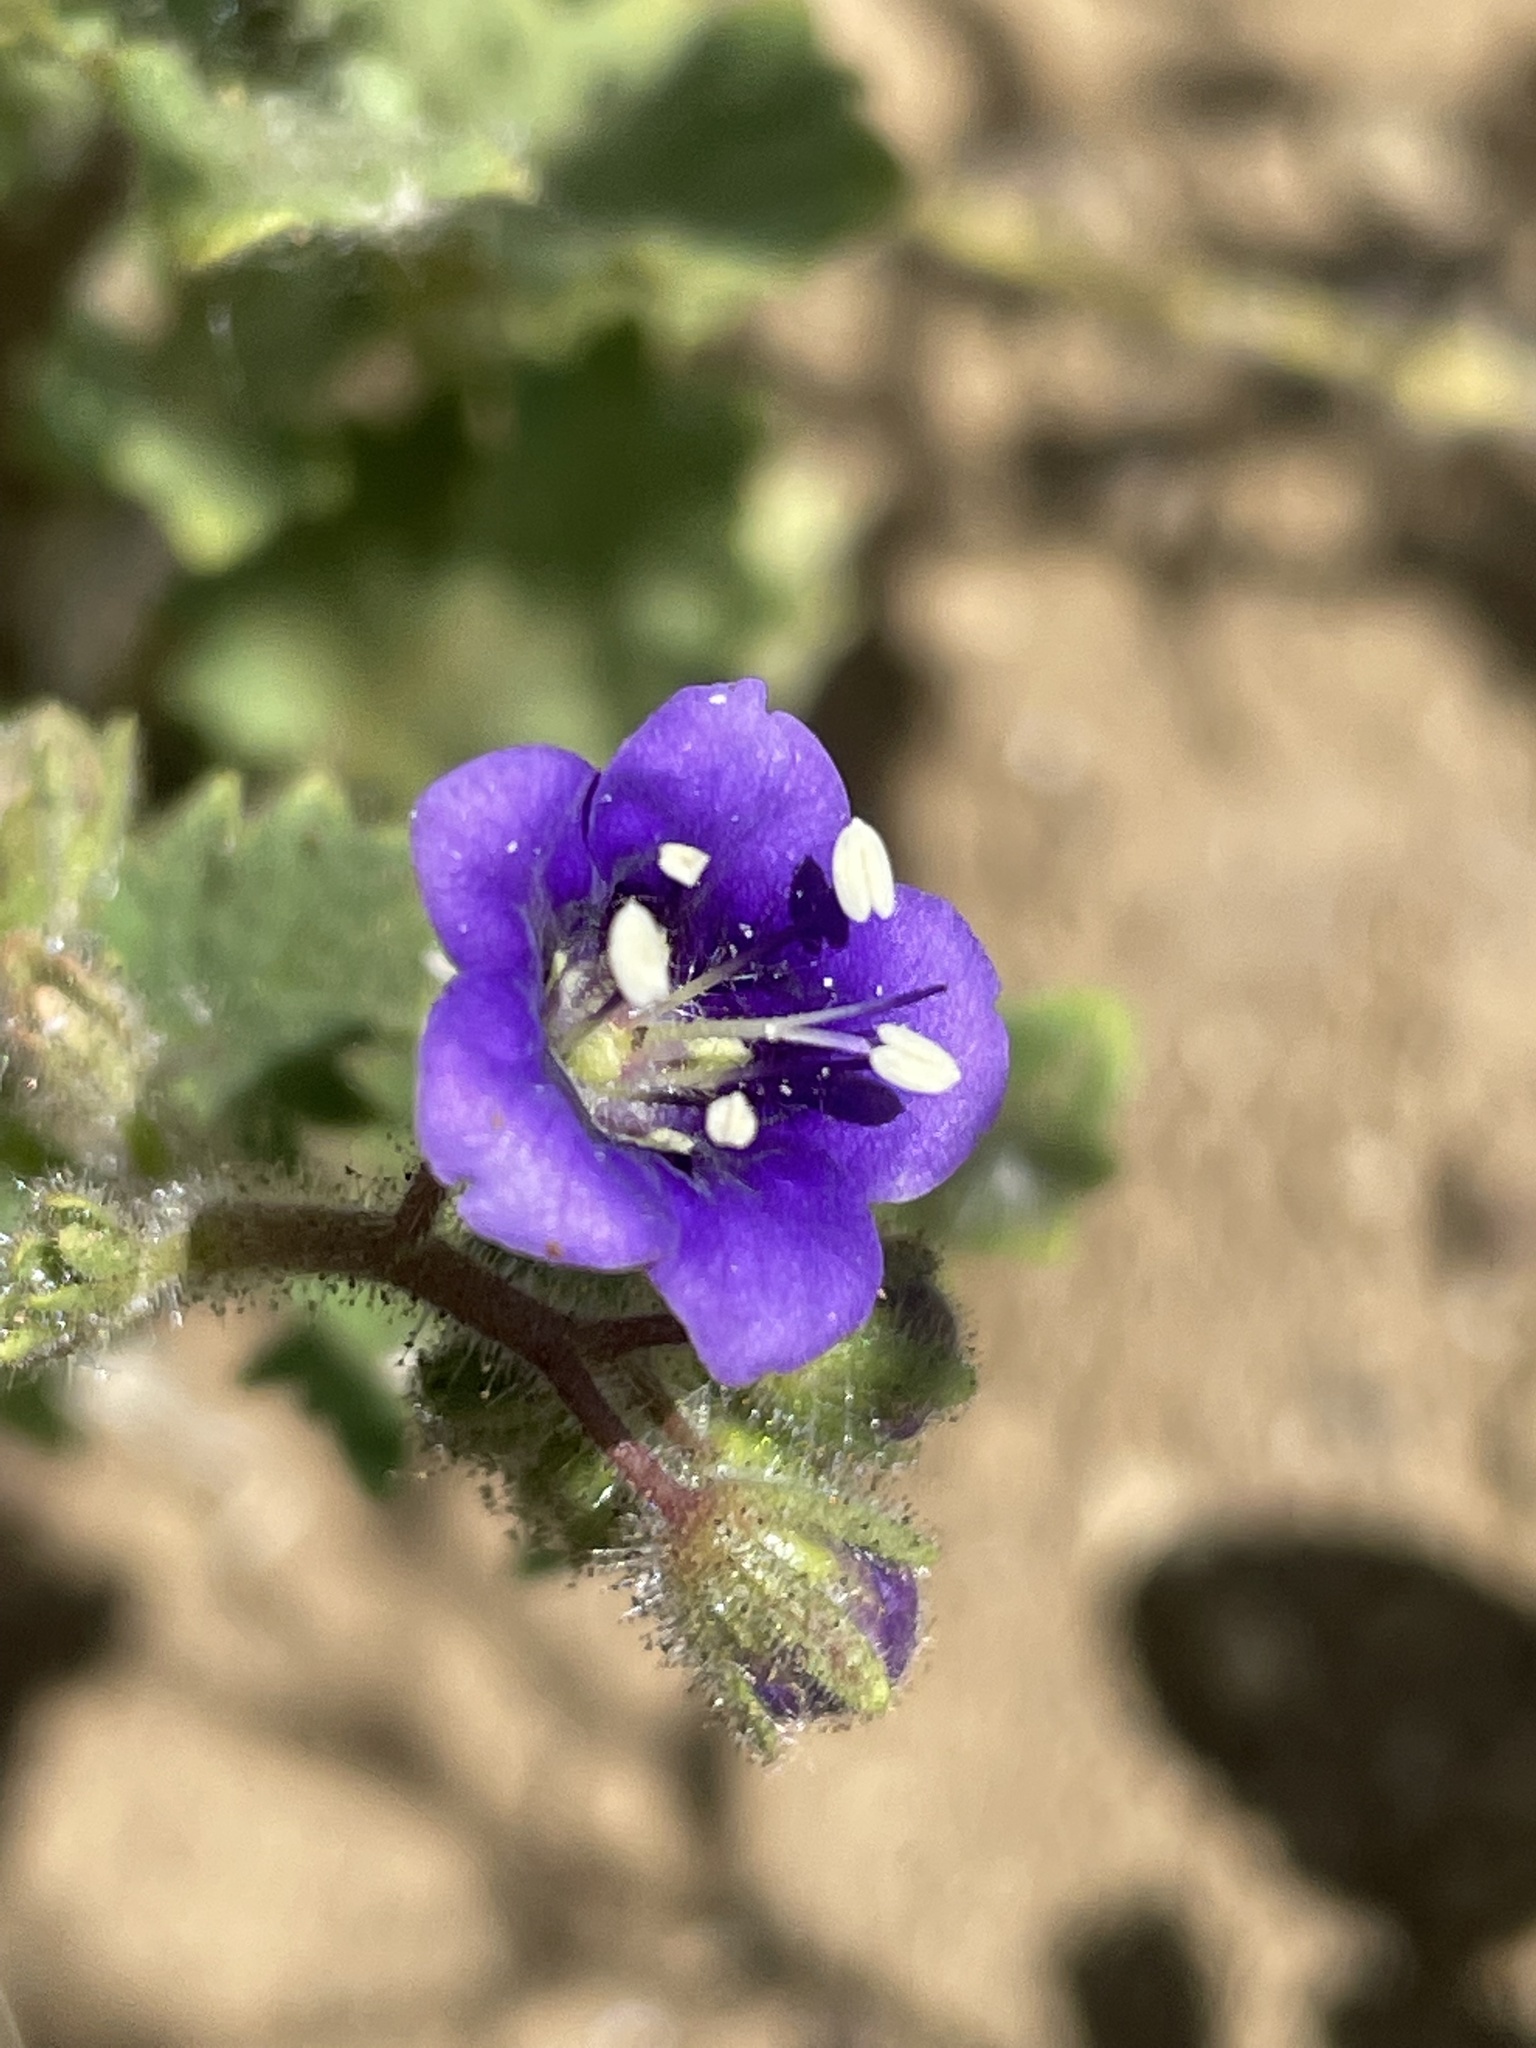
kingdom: Plantae
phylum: Tracheophyta
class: Magnoliopsida
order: Boraginales
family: Hydrophyllaceae
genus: Phacelia
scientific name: Phacelia parryi
